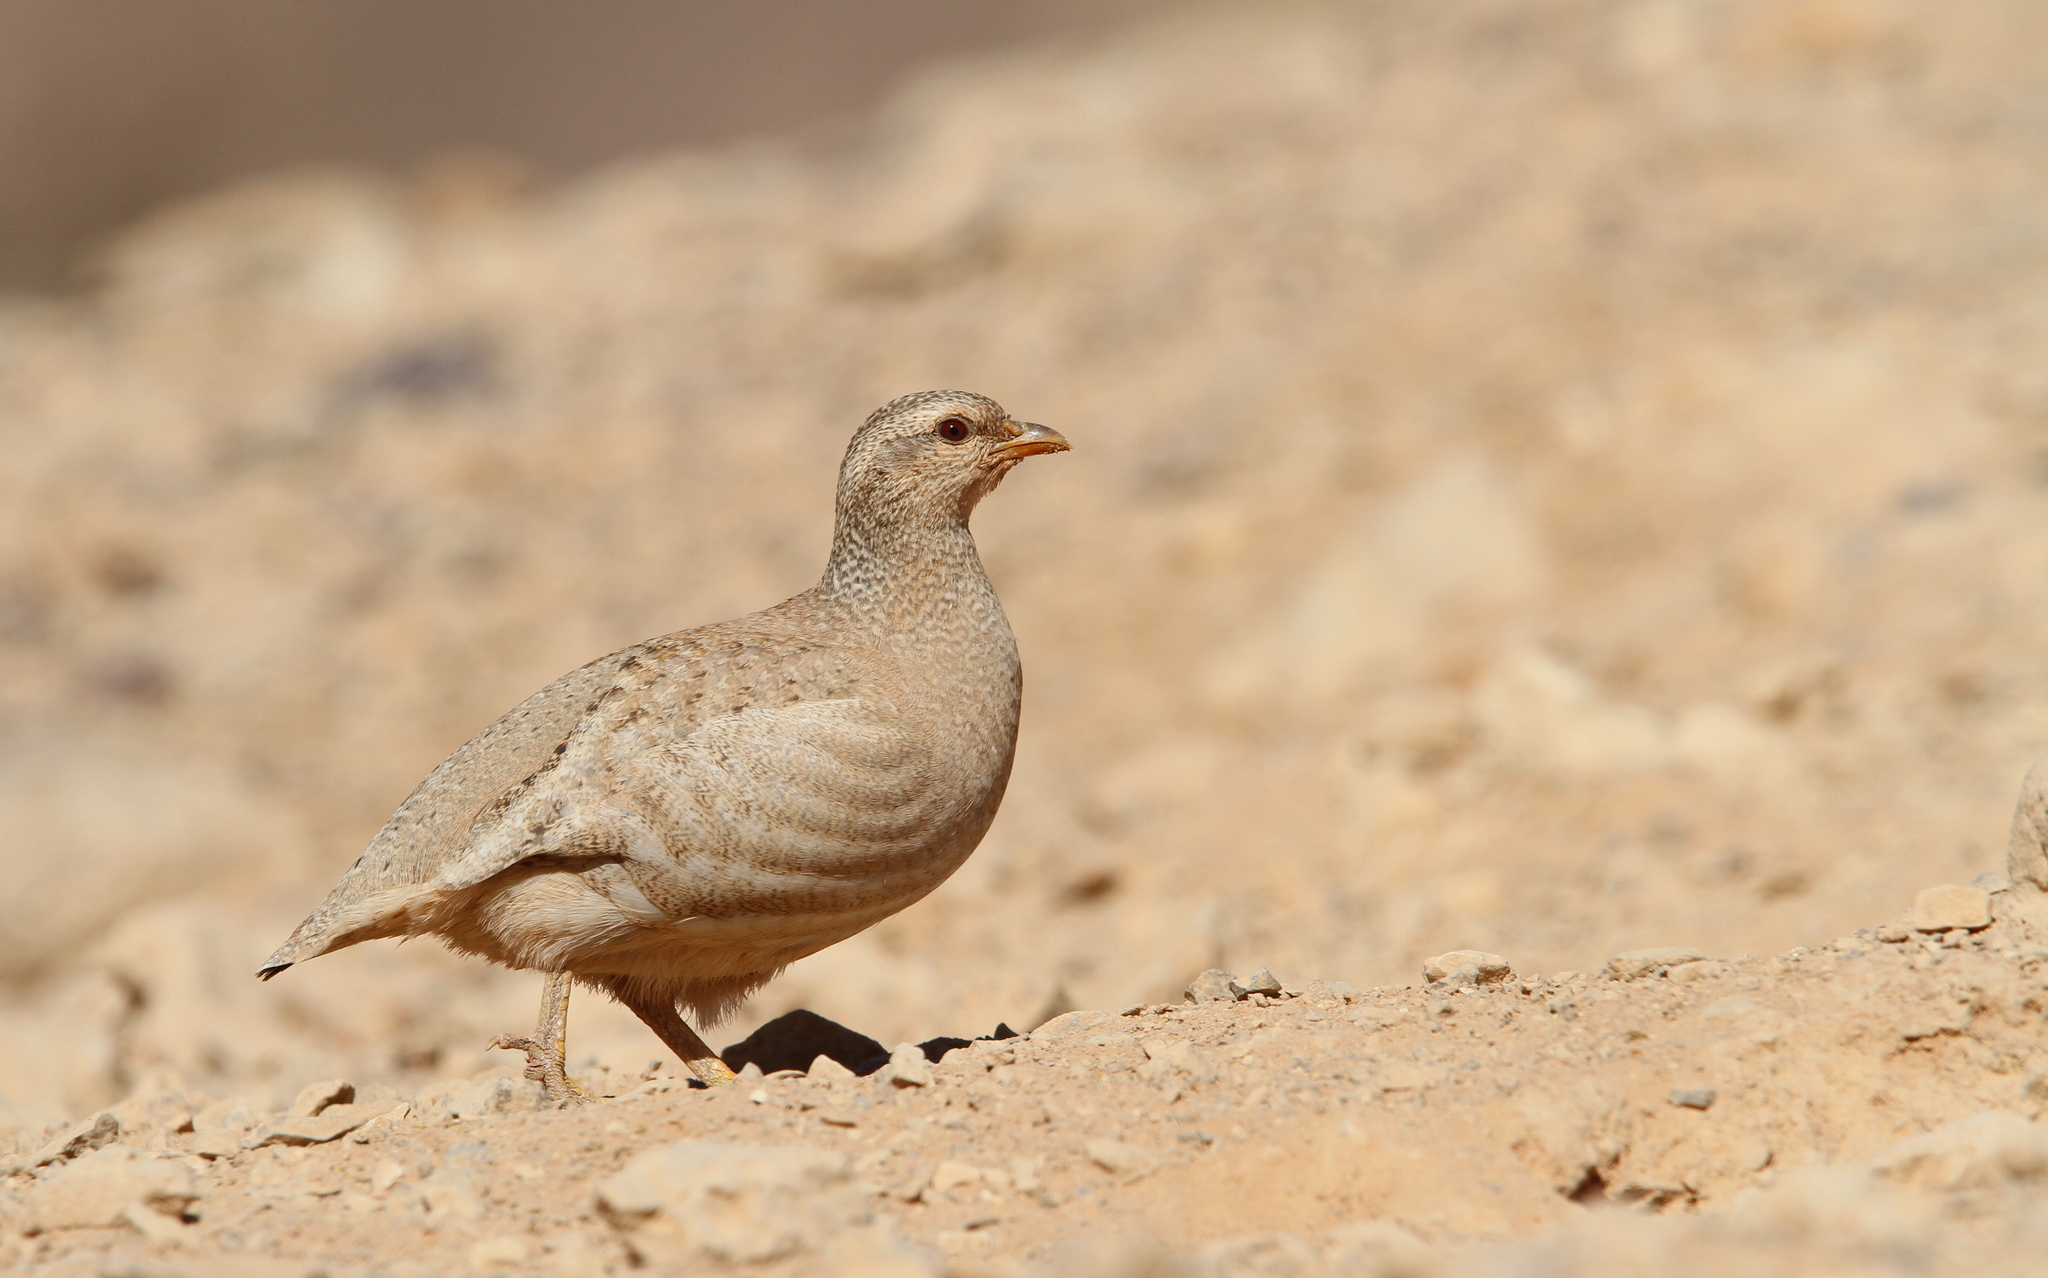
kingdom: Animalia
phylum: Chordata
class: Aves
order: Galliformes
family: Phasianidae
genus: Ammoperdix
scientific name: Ammoperdix heyi
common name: Sand partridge
